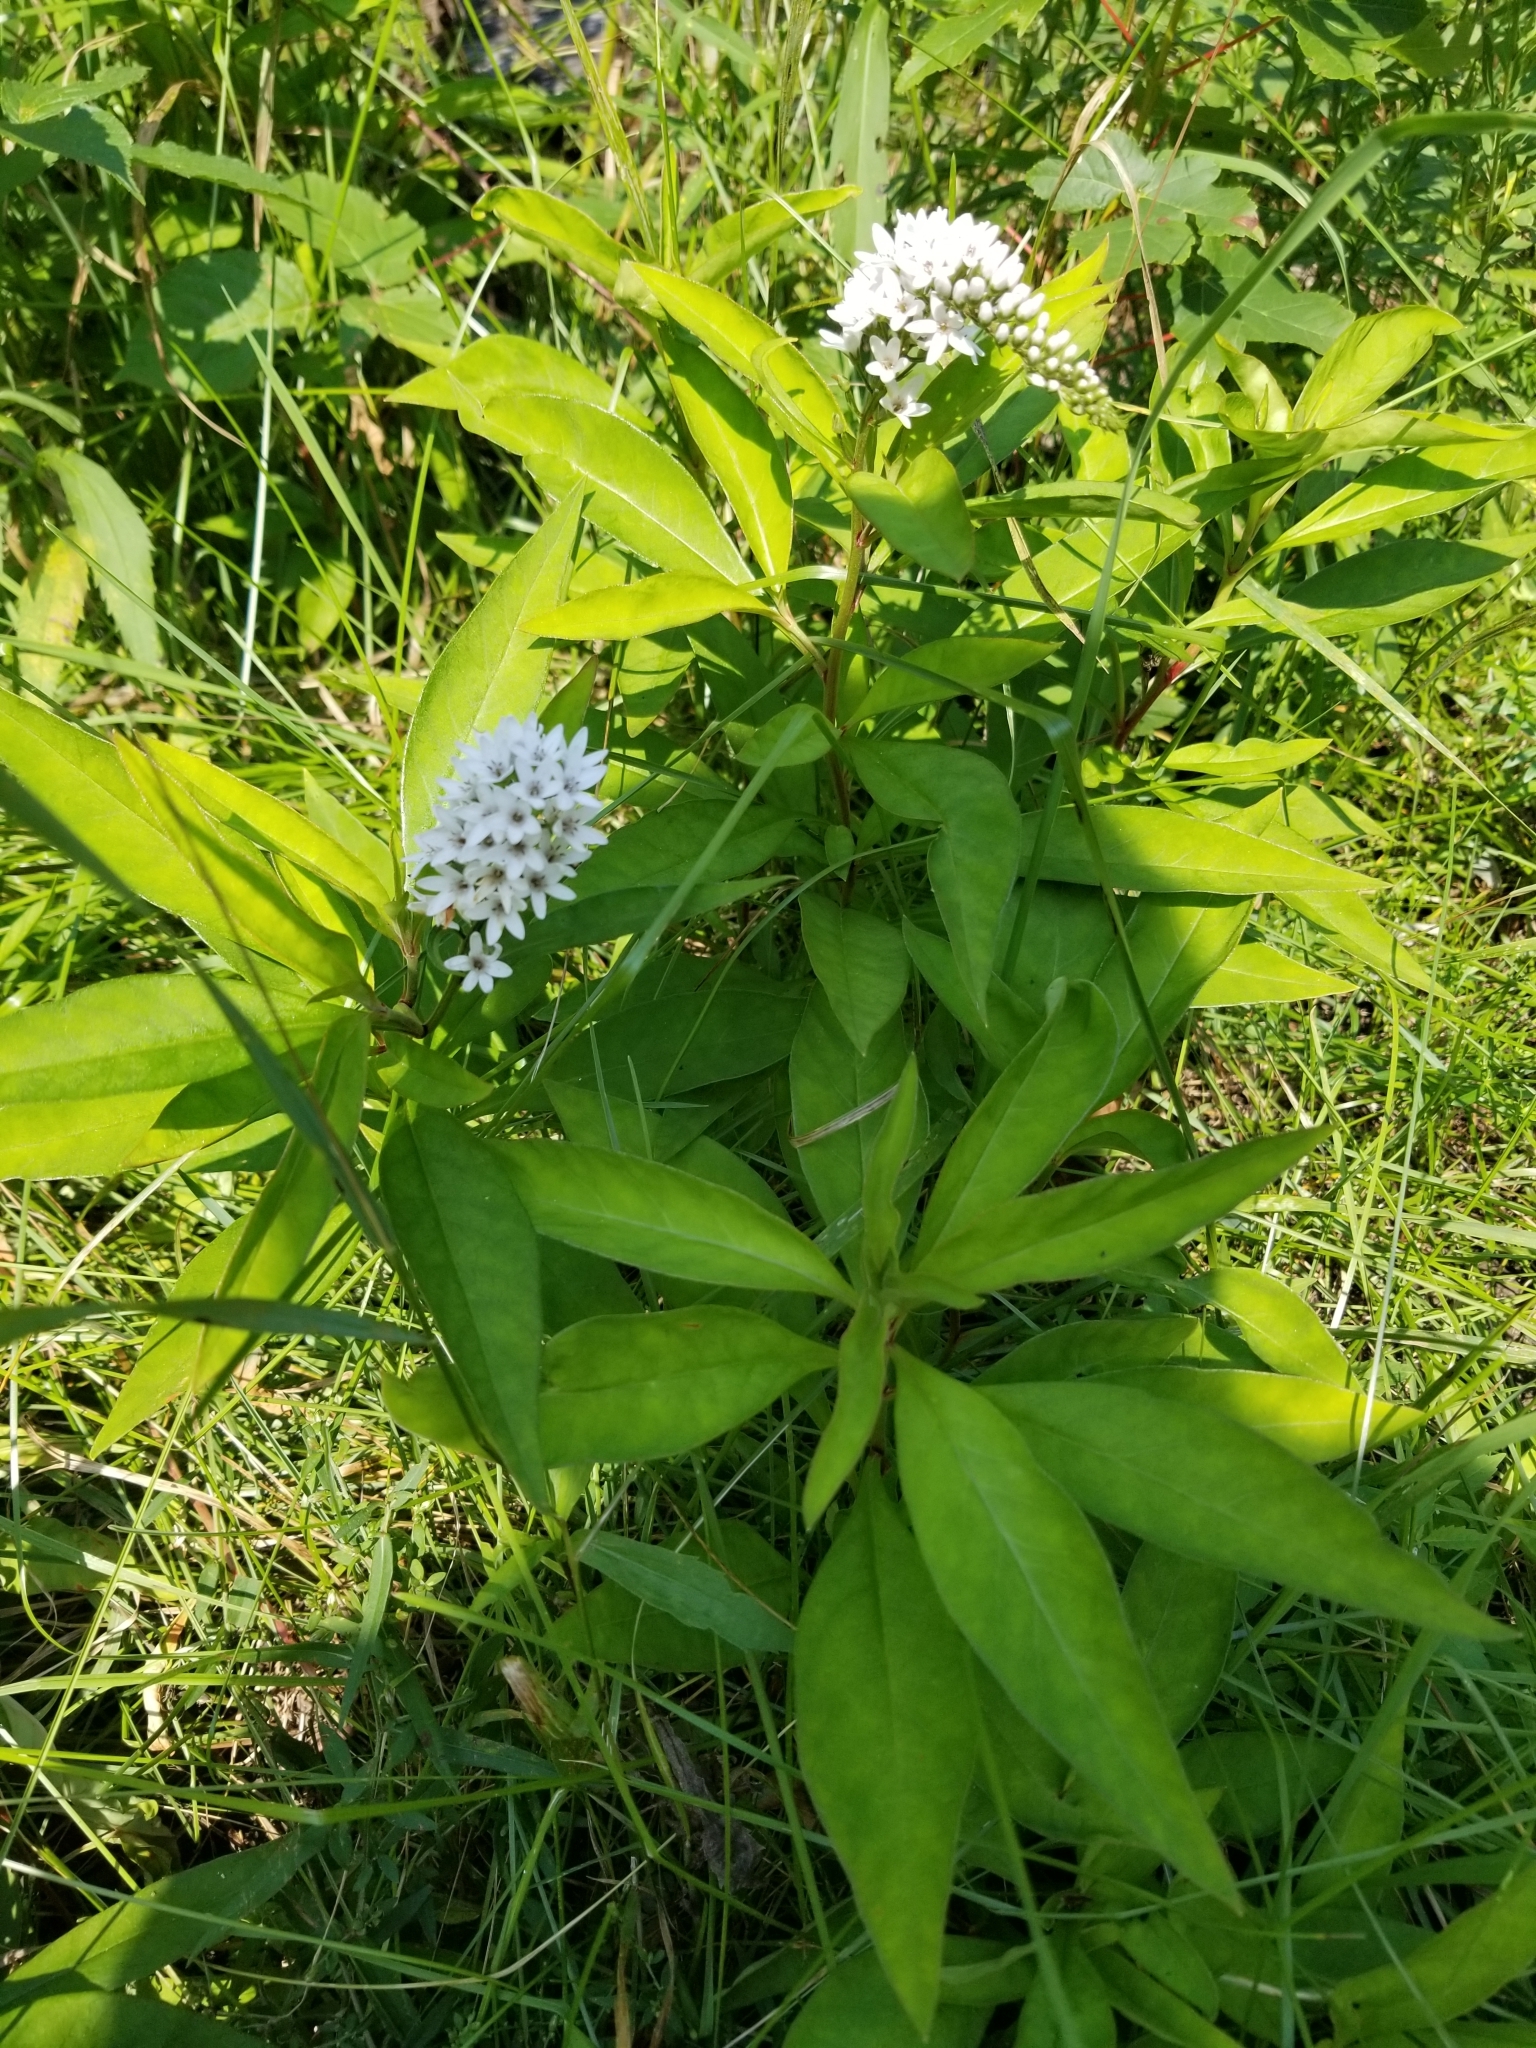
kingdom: Plantae
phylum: Tracheophyta
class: Magnoliopsida
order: Ericales
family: Primulaceae
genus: Lysimachia
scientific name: Lysimachia clethroides
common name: Gooseneck loosestrife
